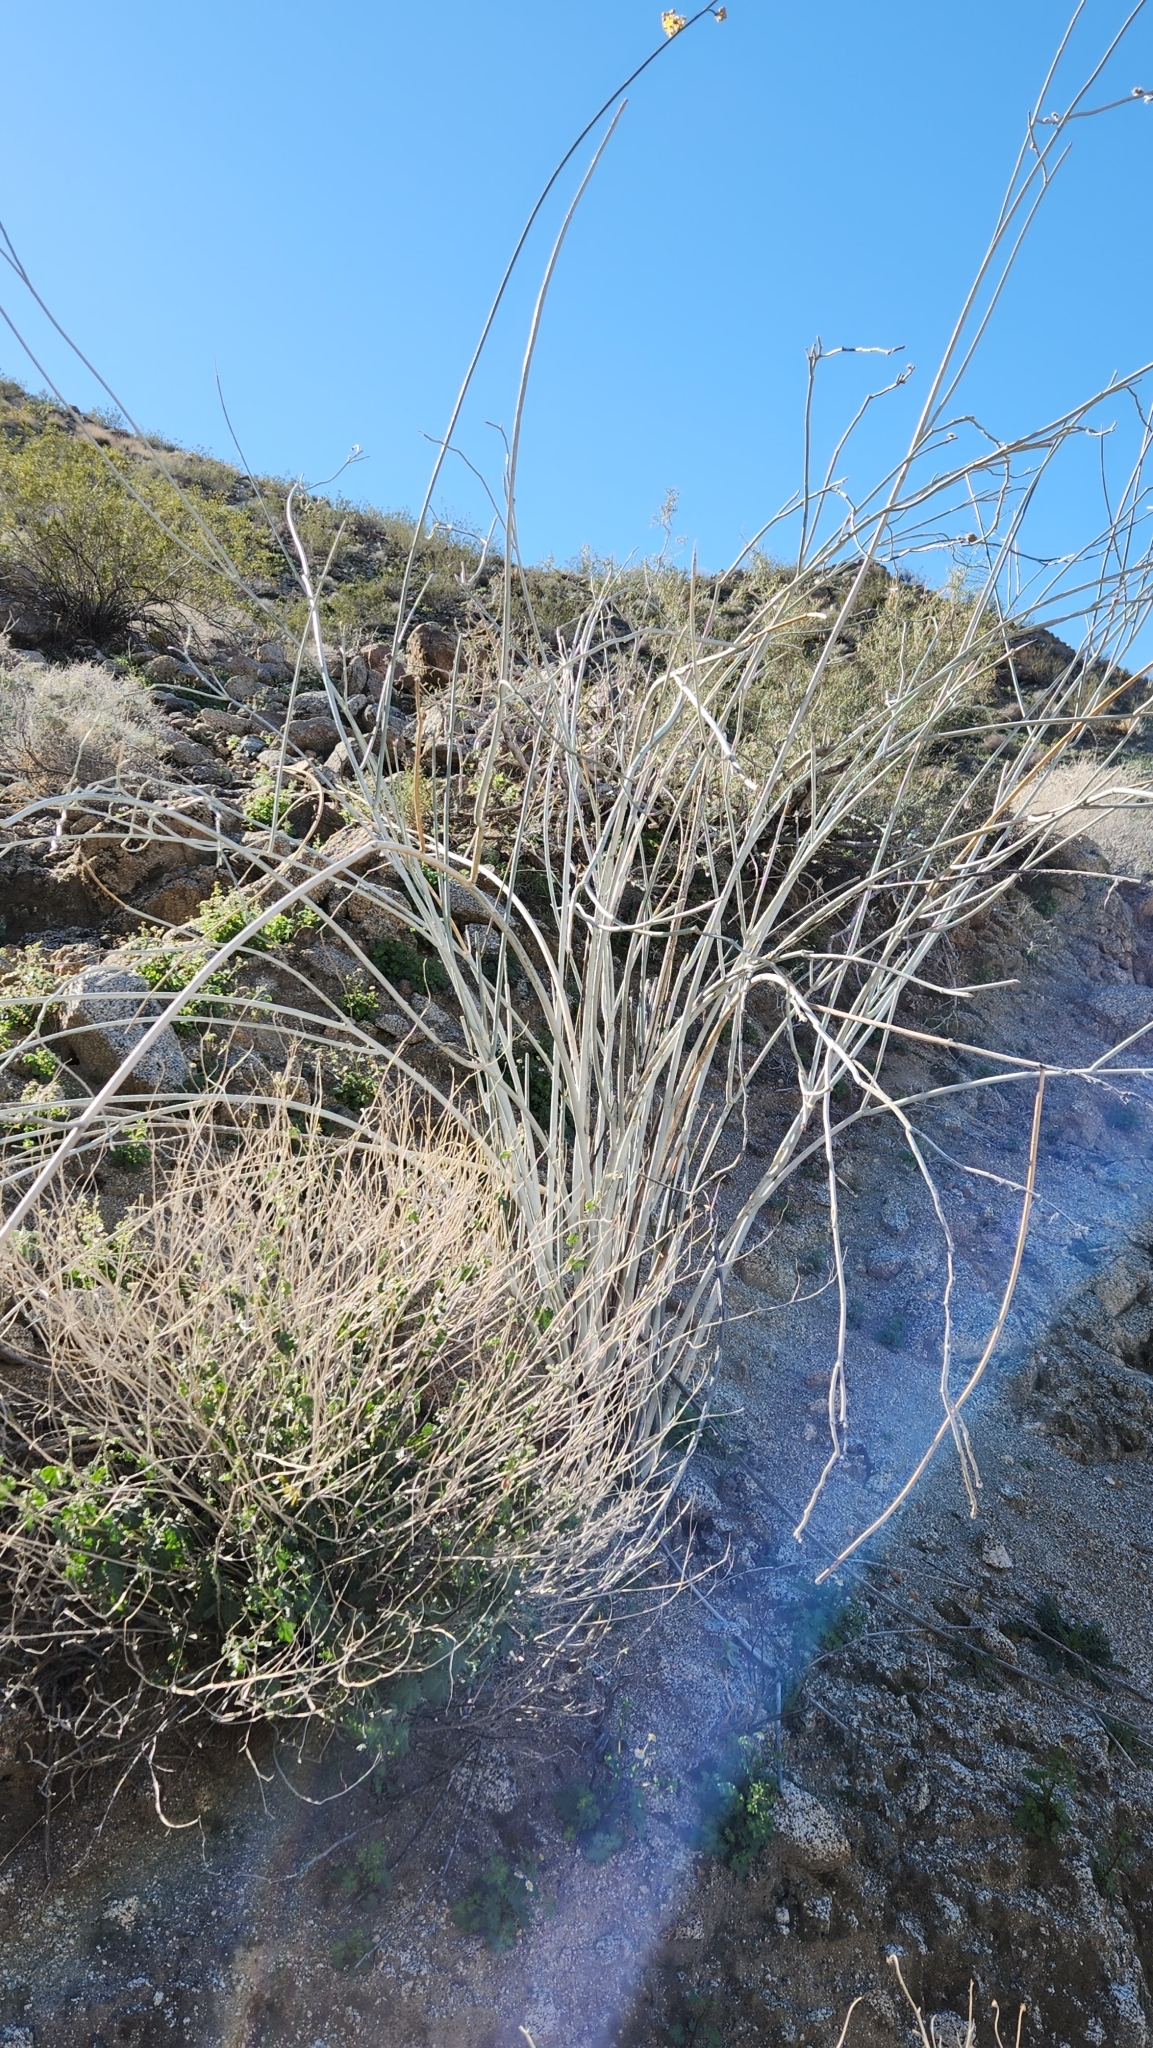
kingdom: Plantae
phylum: Tracheophyta
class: Magnoliopsida
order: Gentianales
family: Apocynaceae
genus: Asclepias
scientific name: Asclepias albicans
